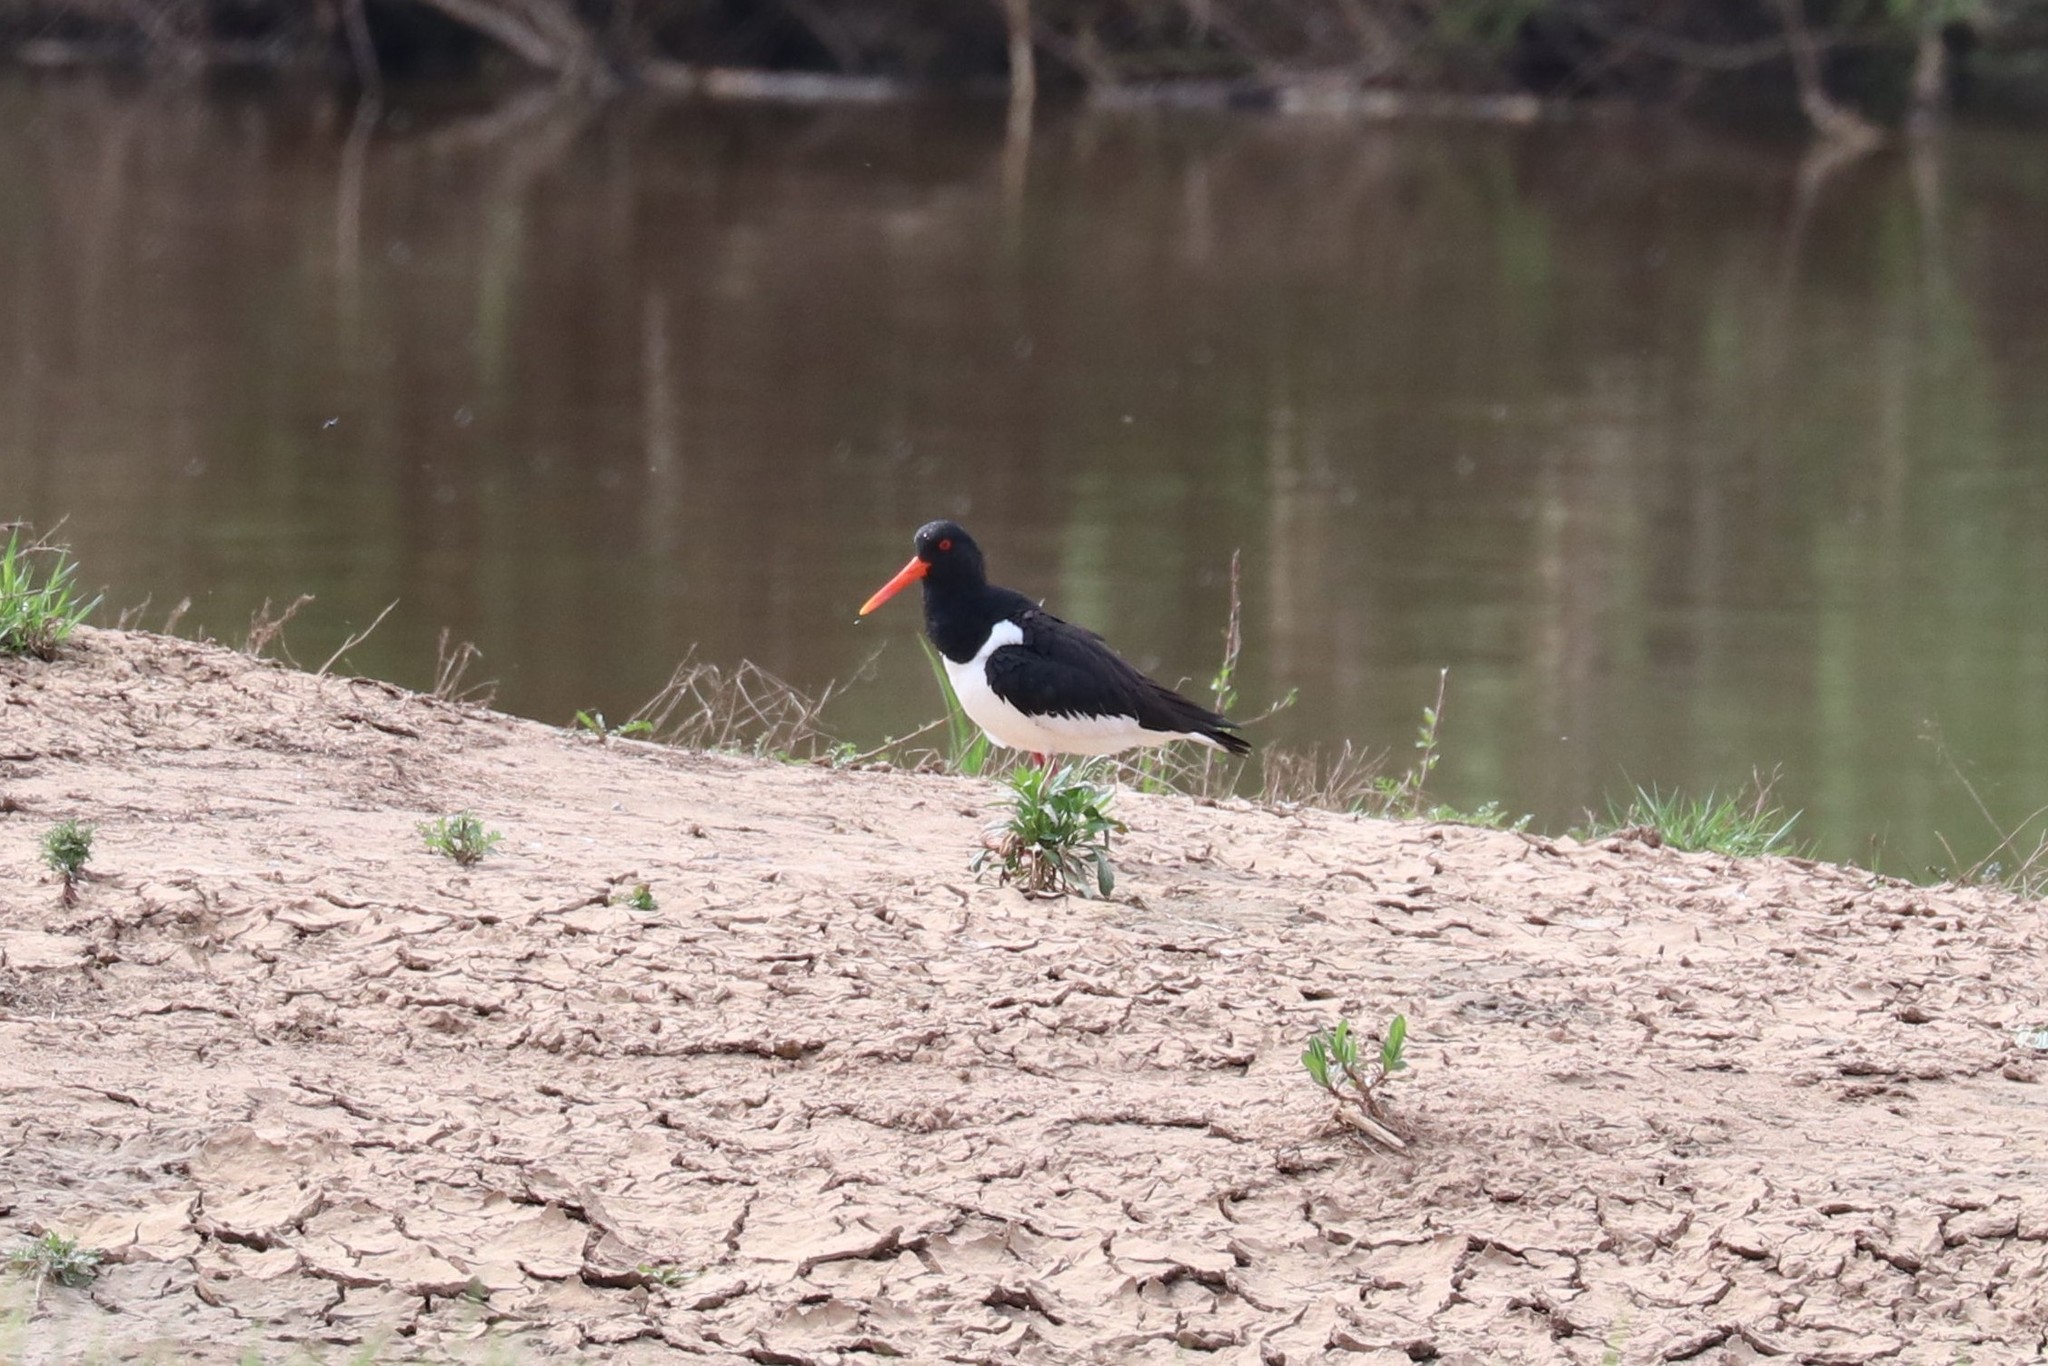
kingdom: Animalia
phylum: Chordata
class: Aves
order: Charadriiformes
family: Haematopodidae
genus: Haematopus
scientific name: Haematopus ostralegus
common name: Eurasian oystercatcher
